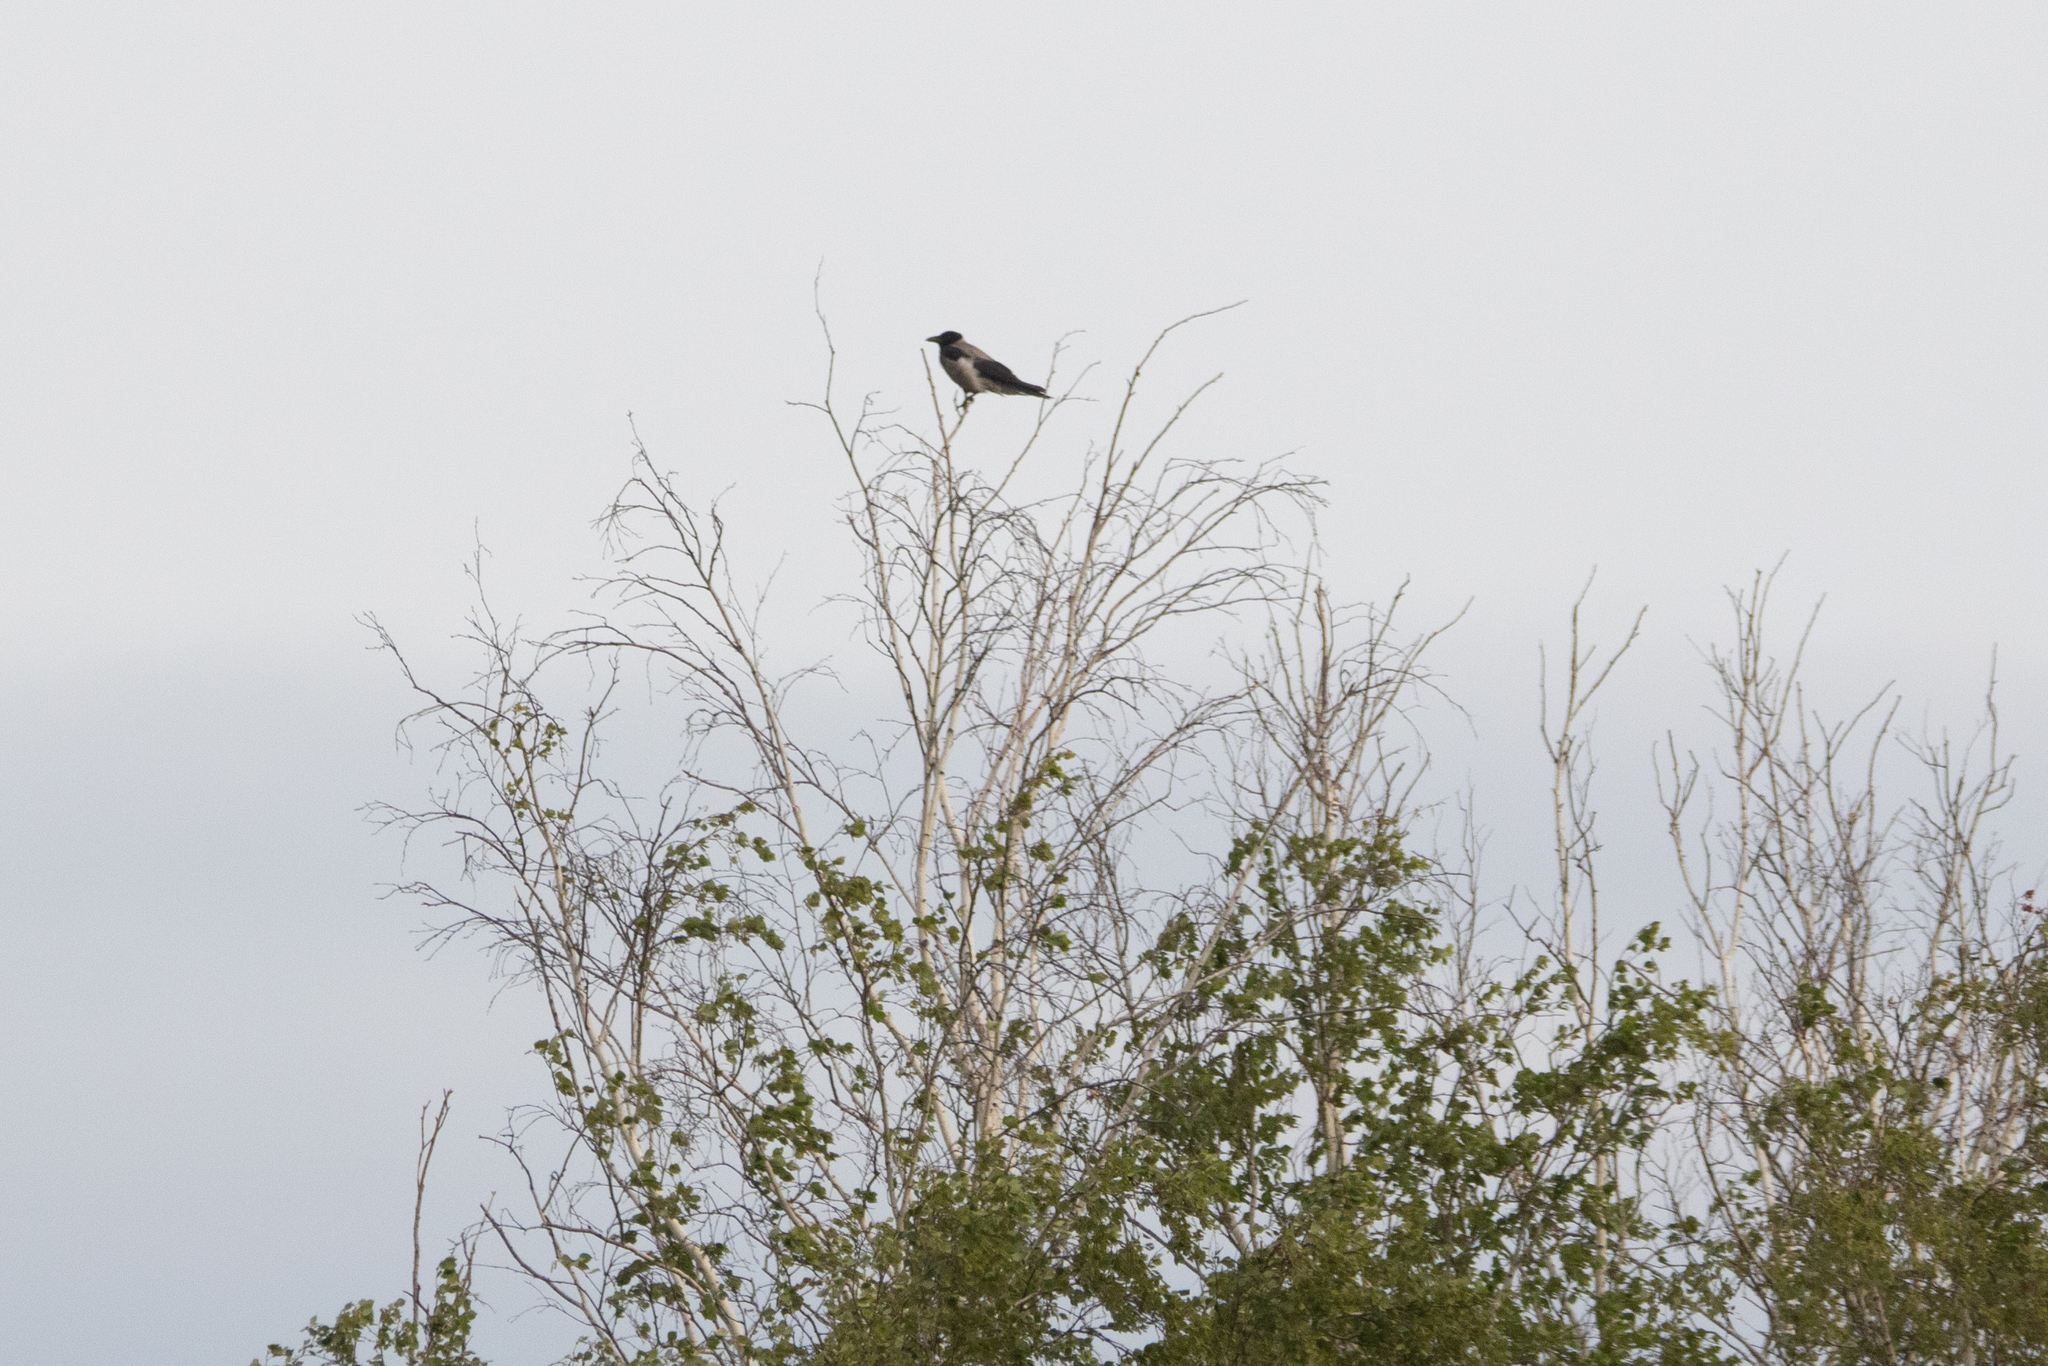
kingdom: Animalia
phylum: Chordata
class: Aves
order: Passeriformes
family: Corvidae
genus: Corvus
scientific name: Corvus cornix
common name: Hooded crow
